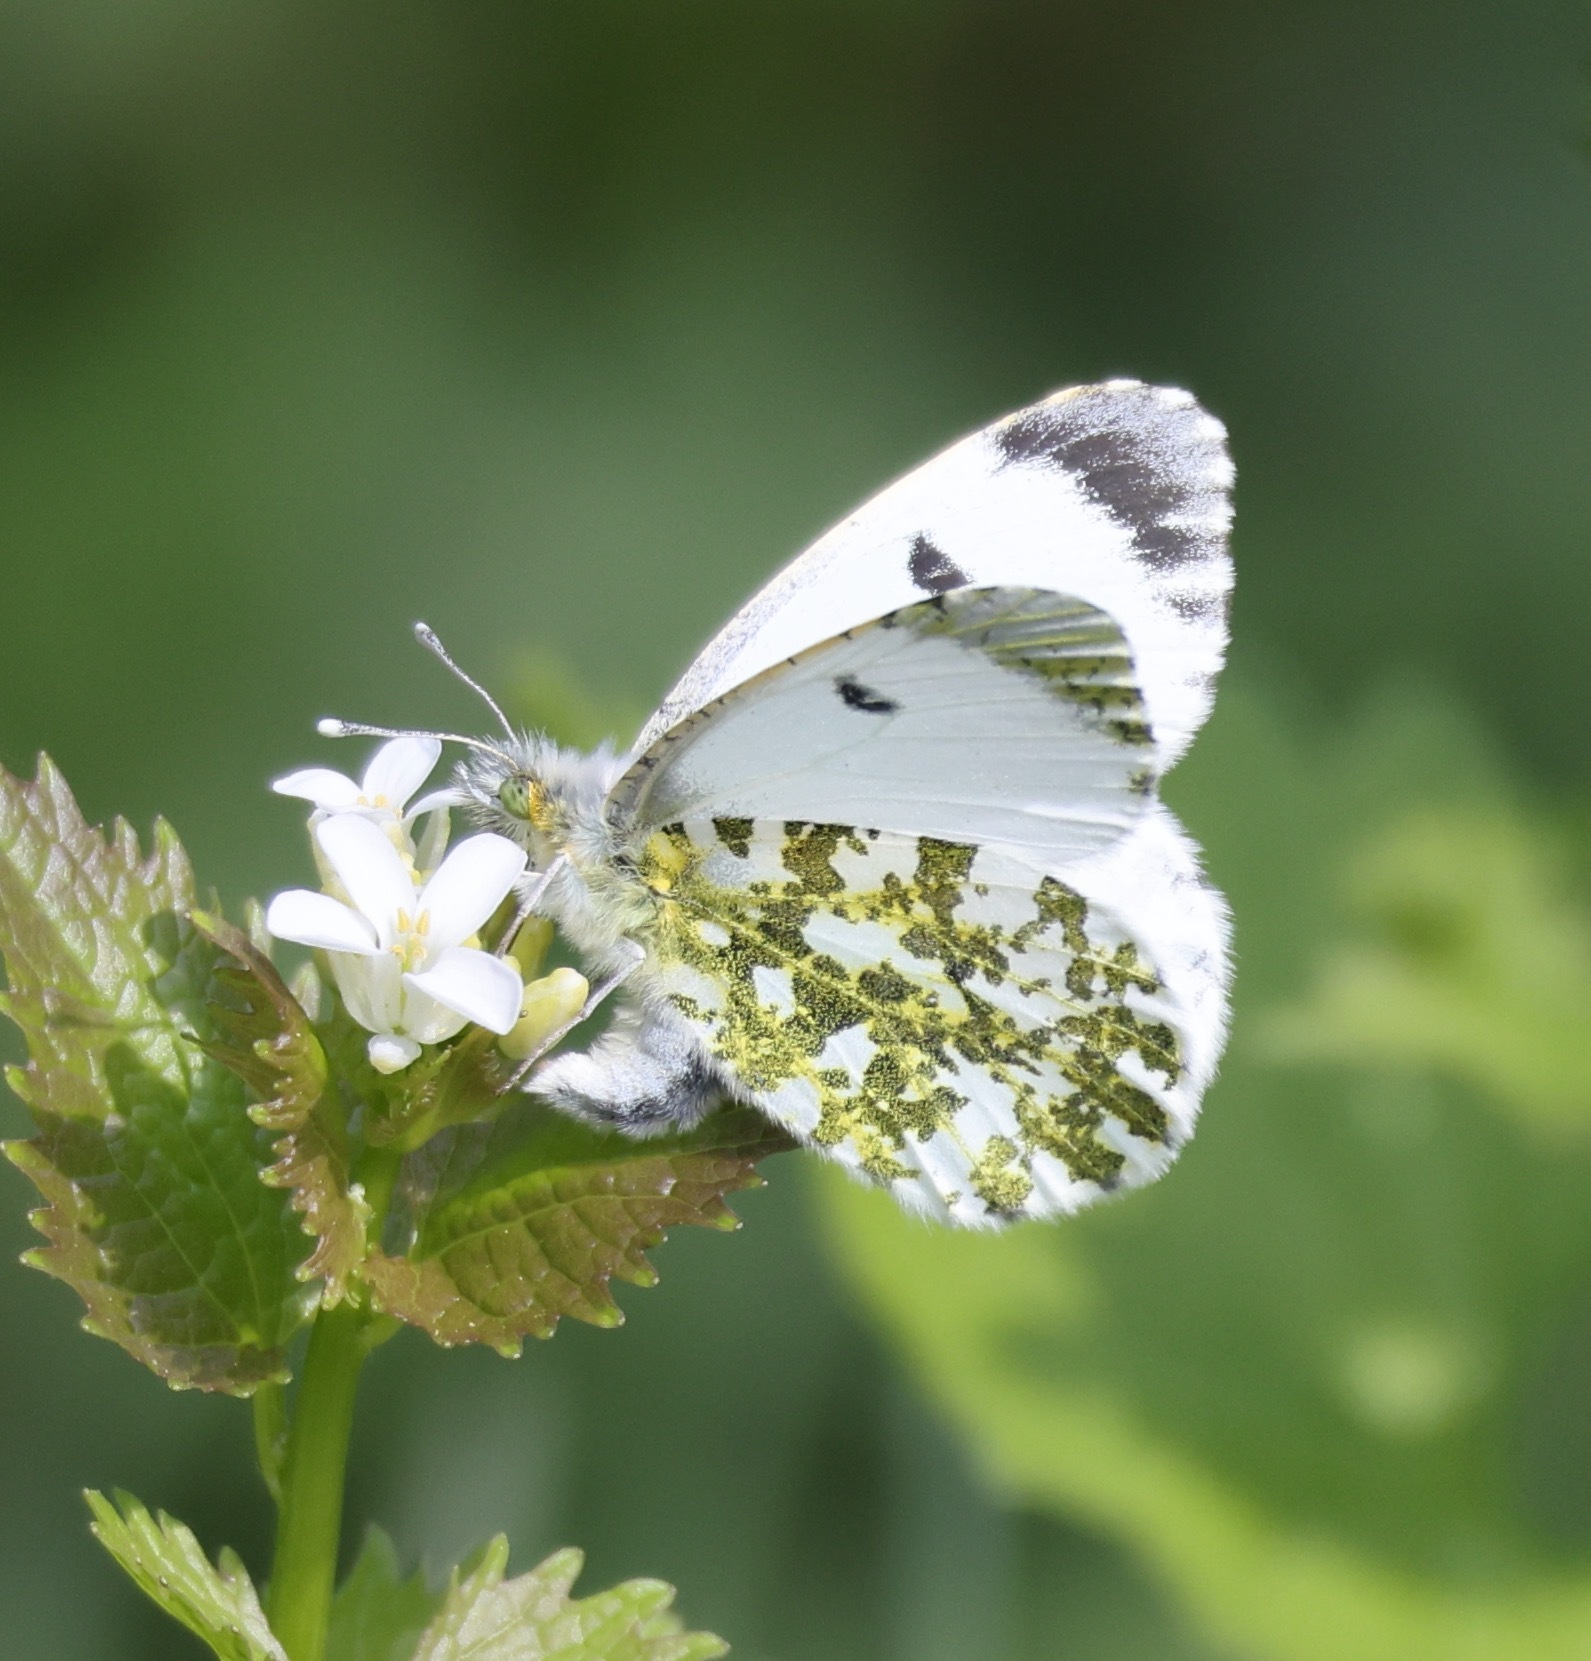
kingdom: Animalia
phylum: Arthropoda
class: Insecta
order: Lepidoptera
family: Pieridae
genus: Anthocharis
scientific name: Anthocharis cardamines
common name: Orange-tip
